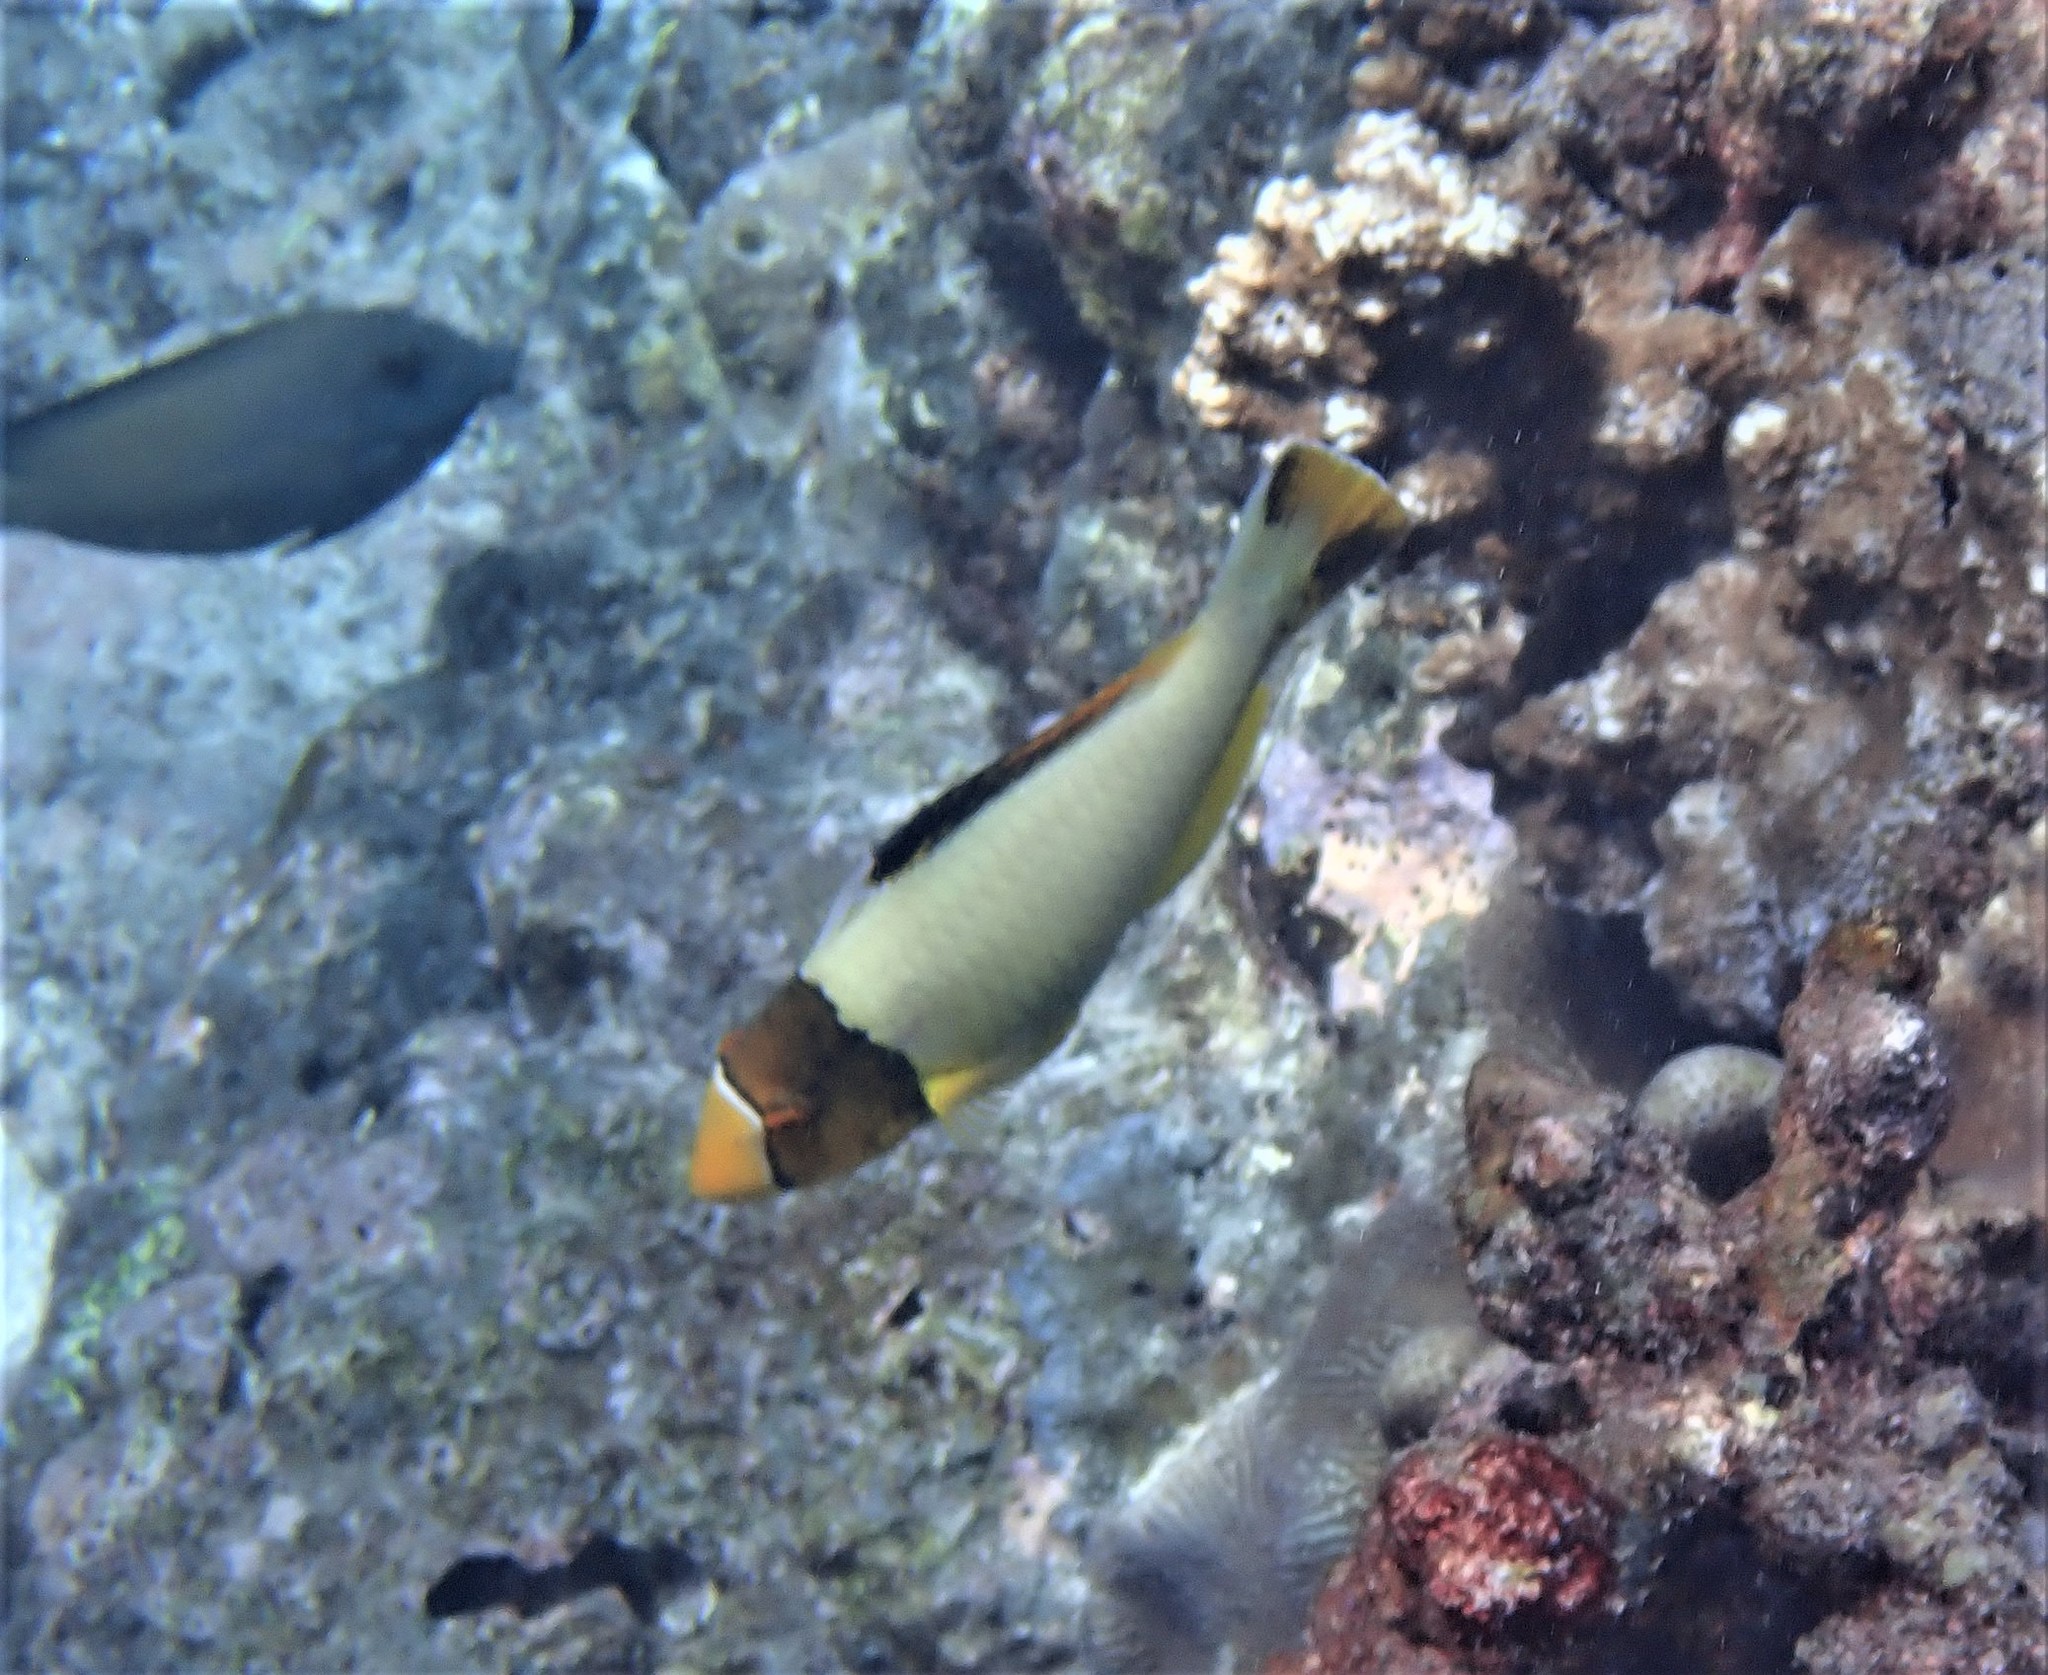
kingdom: Animalia
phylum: Chordata
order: Perciformes
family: Scaridae
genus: Cetoscarus
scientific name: Cetoscarus ocellatus
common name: Bicolor parrotfish
